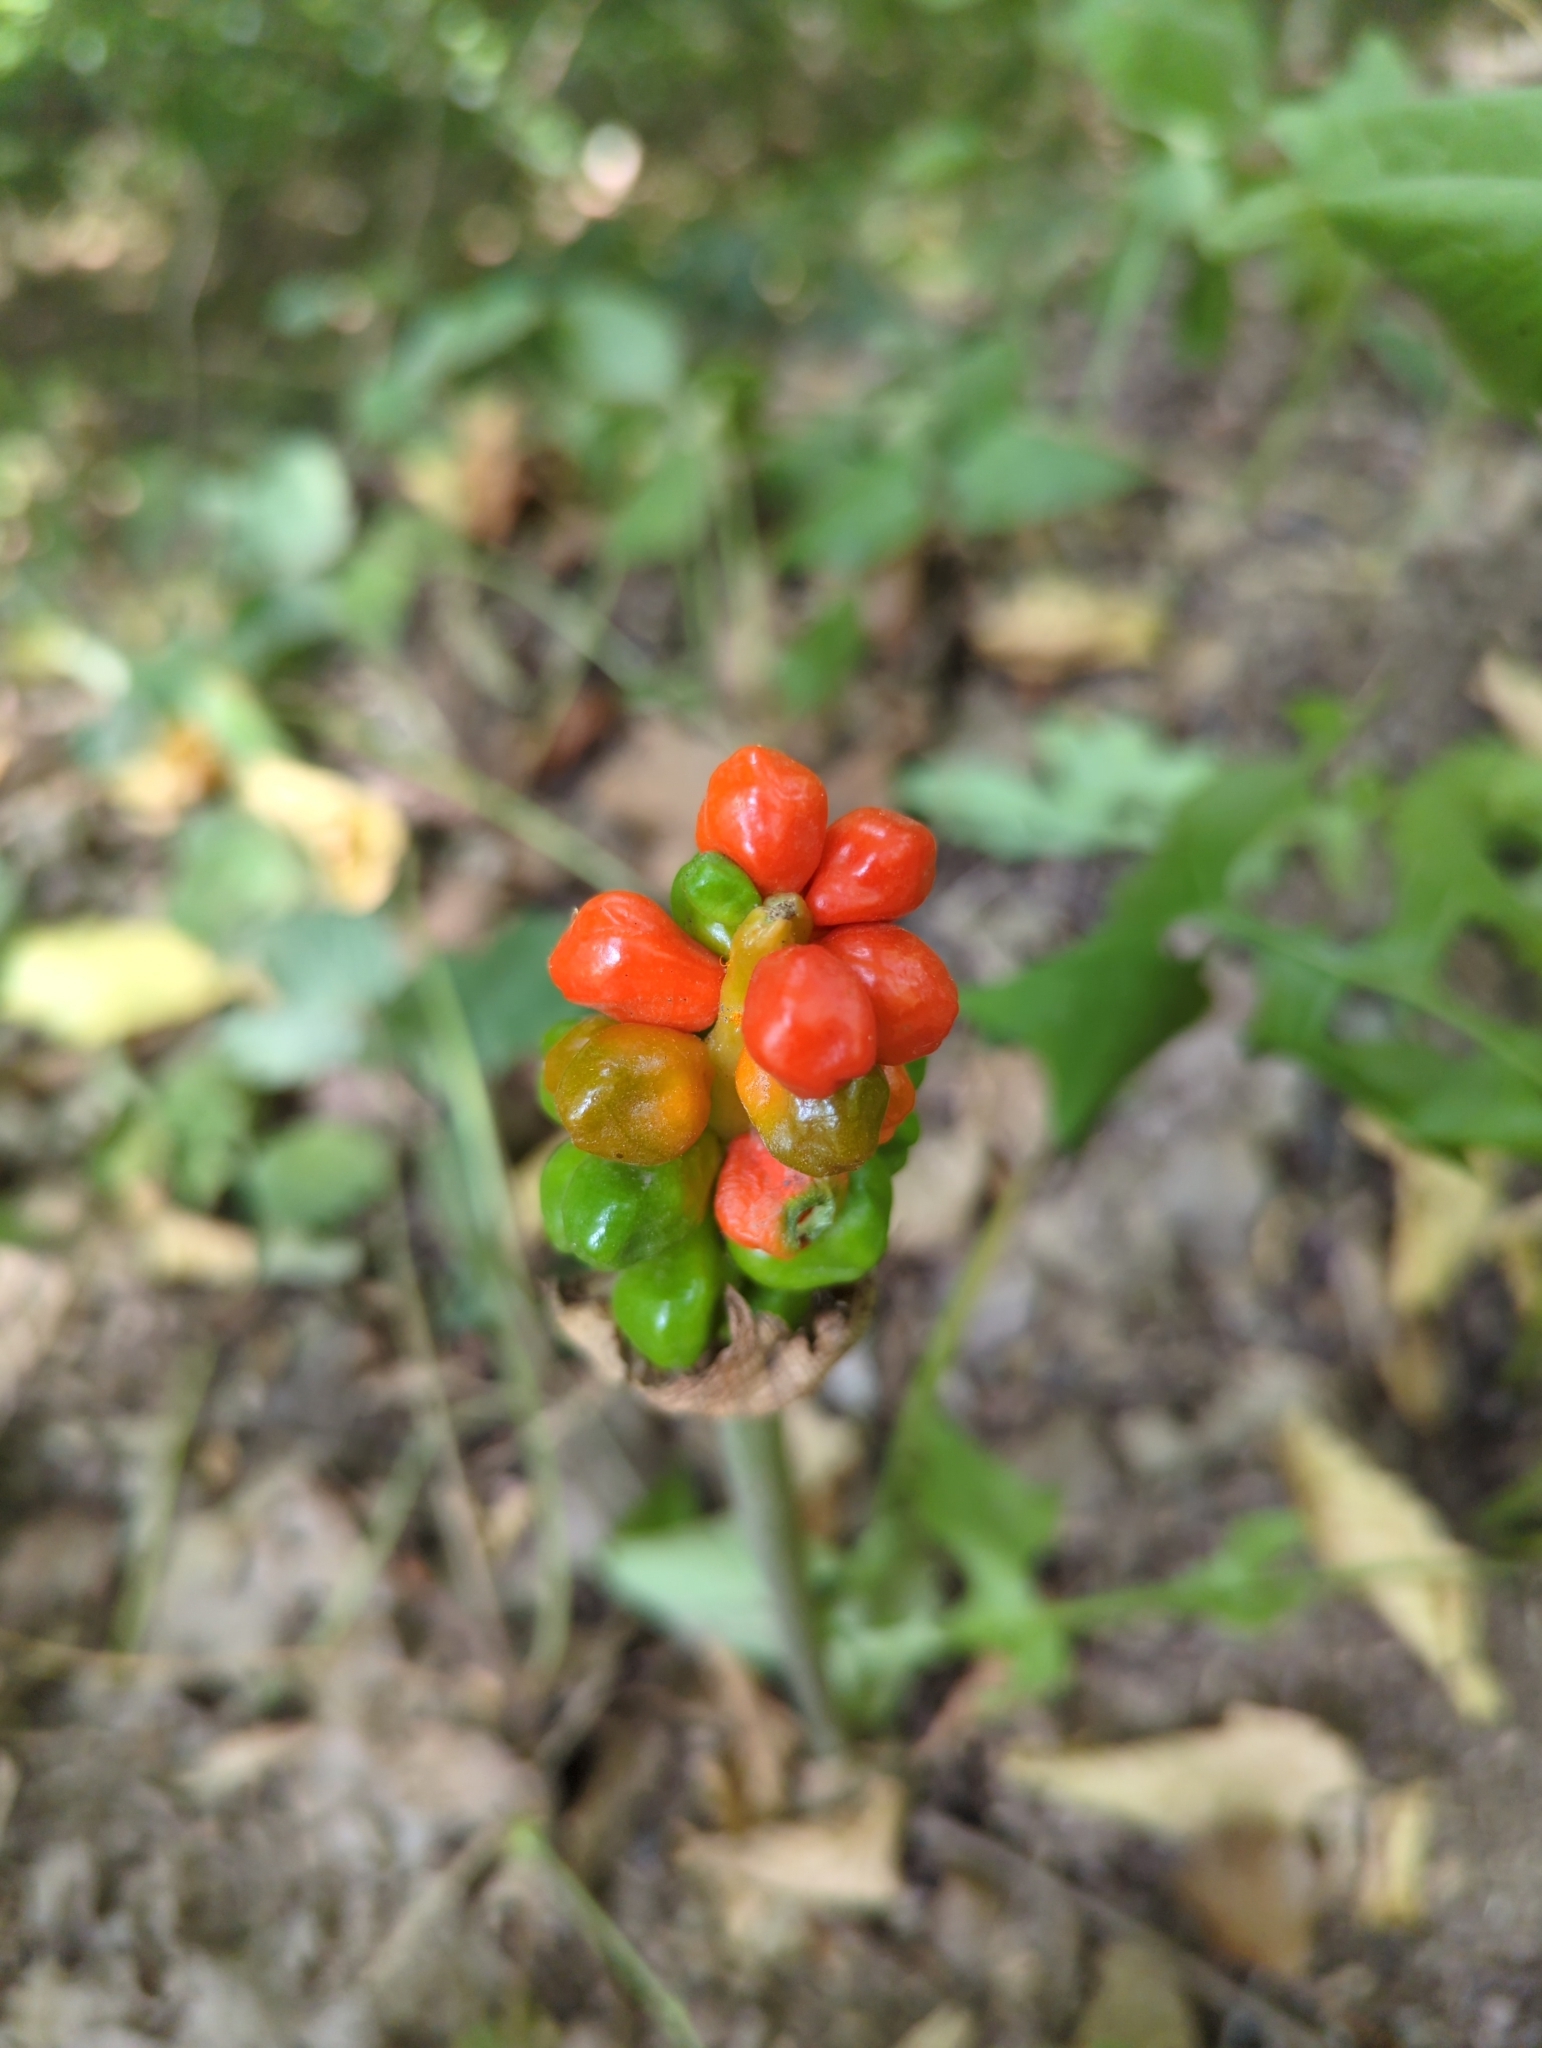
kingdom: Plantae
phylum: Tracheophyta
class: Liliopsida
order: Alismatales
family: Araceae
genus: Arum
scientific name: Arum maculatum
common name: Lords-and-ladies
